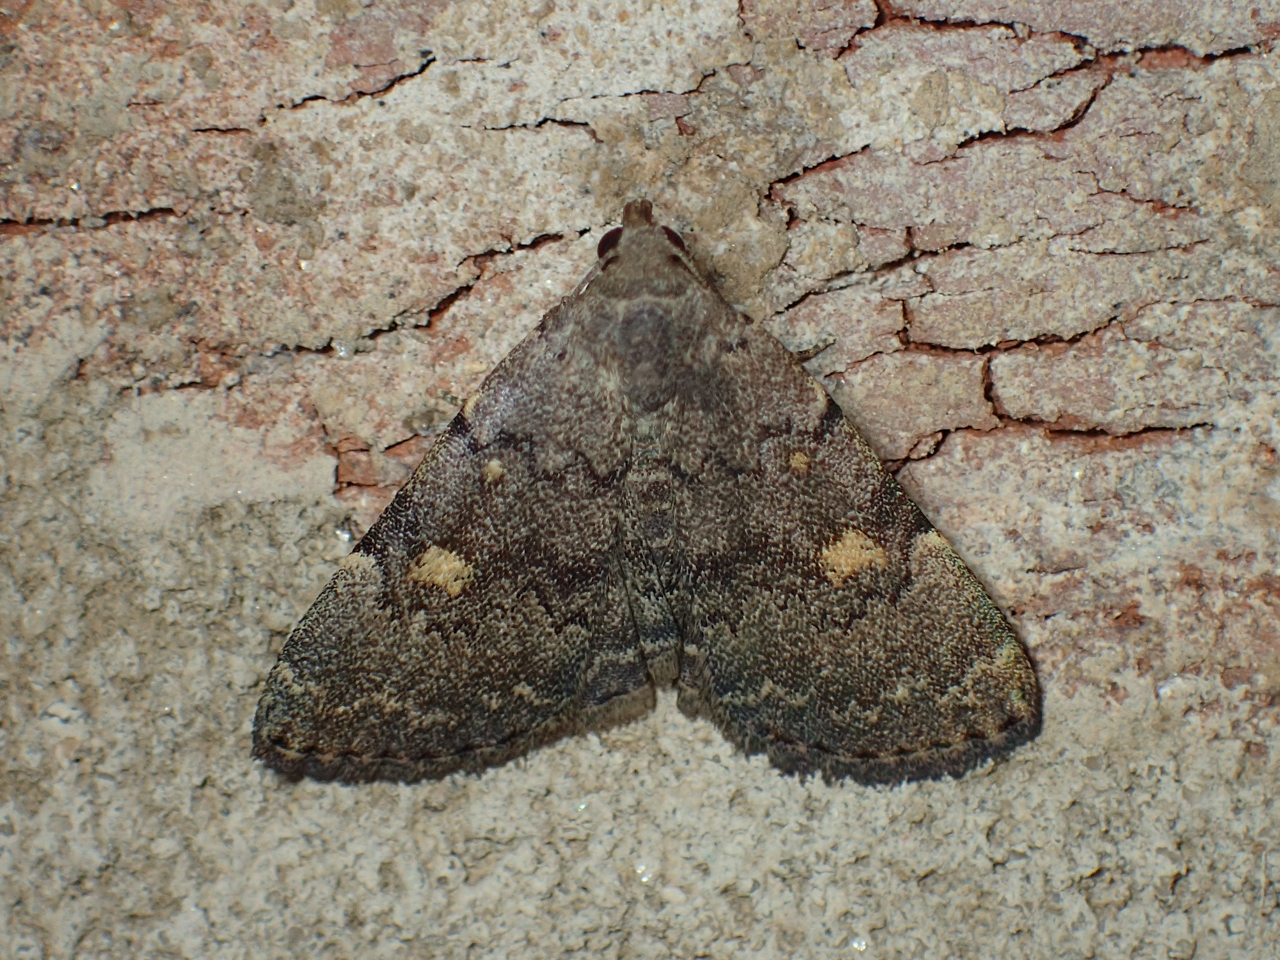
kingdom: Animalia
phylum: Arthropoda
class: Insecta
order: Lepidoptera
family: Erebidae
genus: Idia
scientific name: Idia aemula
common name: Common idia moth
